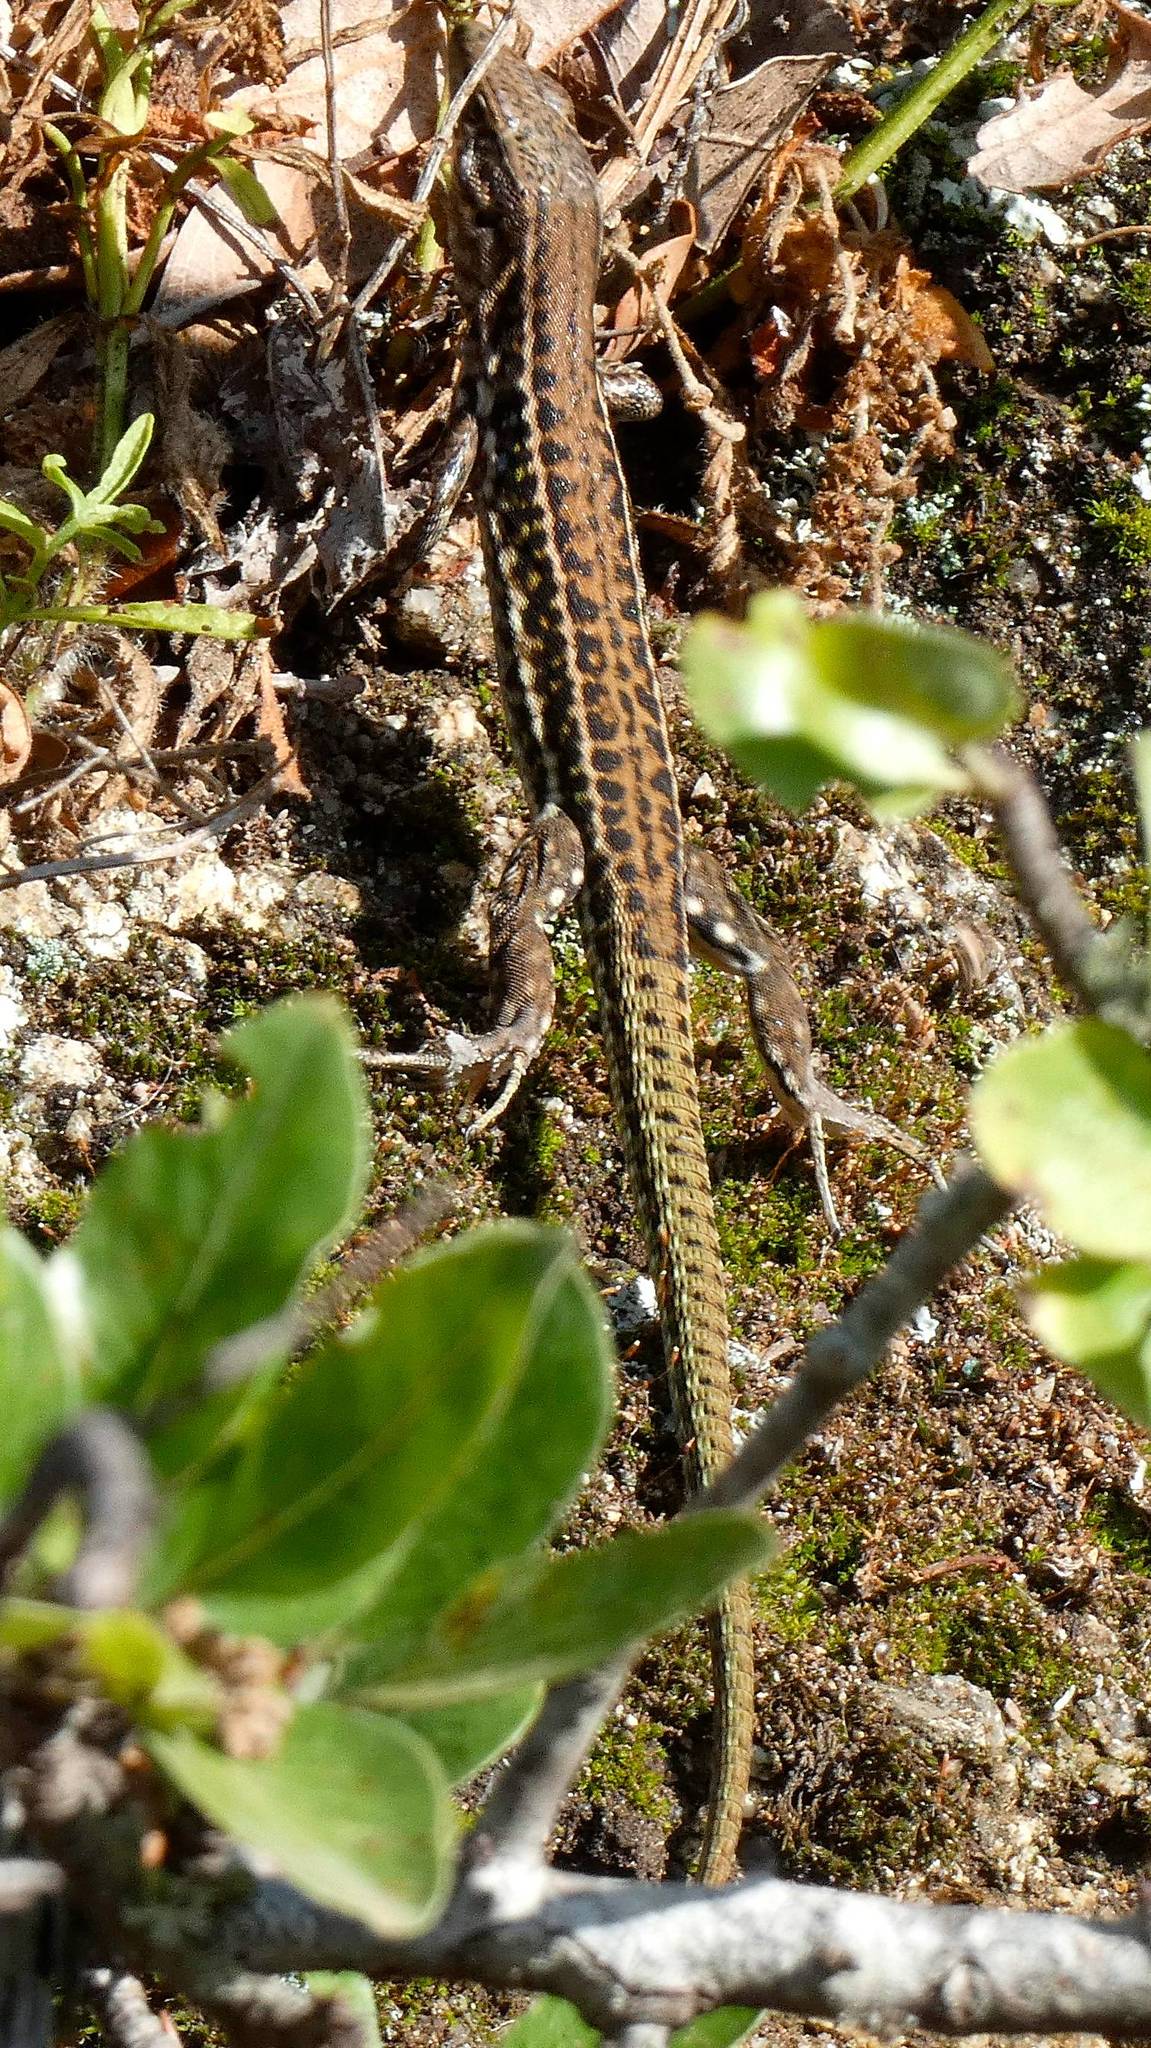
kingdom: Animalia
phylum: Chordata
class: Squamata
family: Lacertidae
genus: Podarcis
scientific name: Podarcis tiliguerta
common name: Tyrrhenian wall lizard
